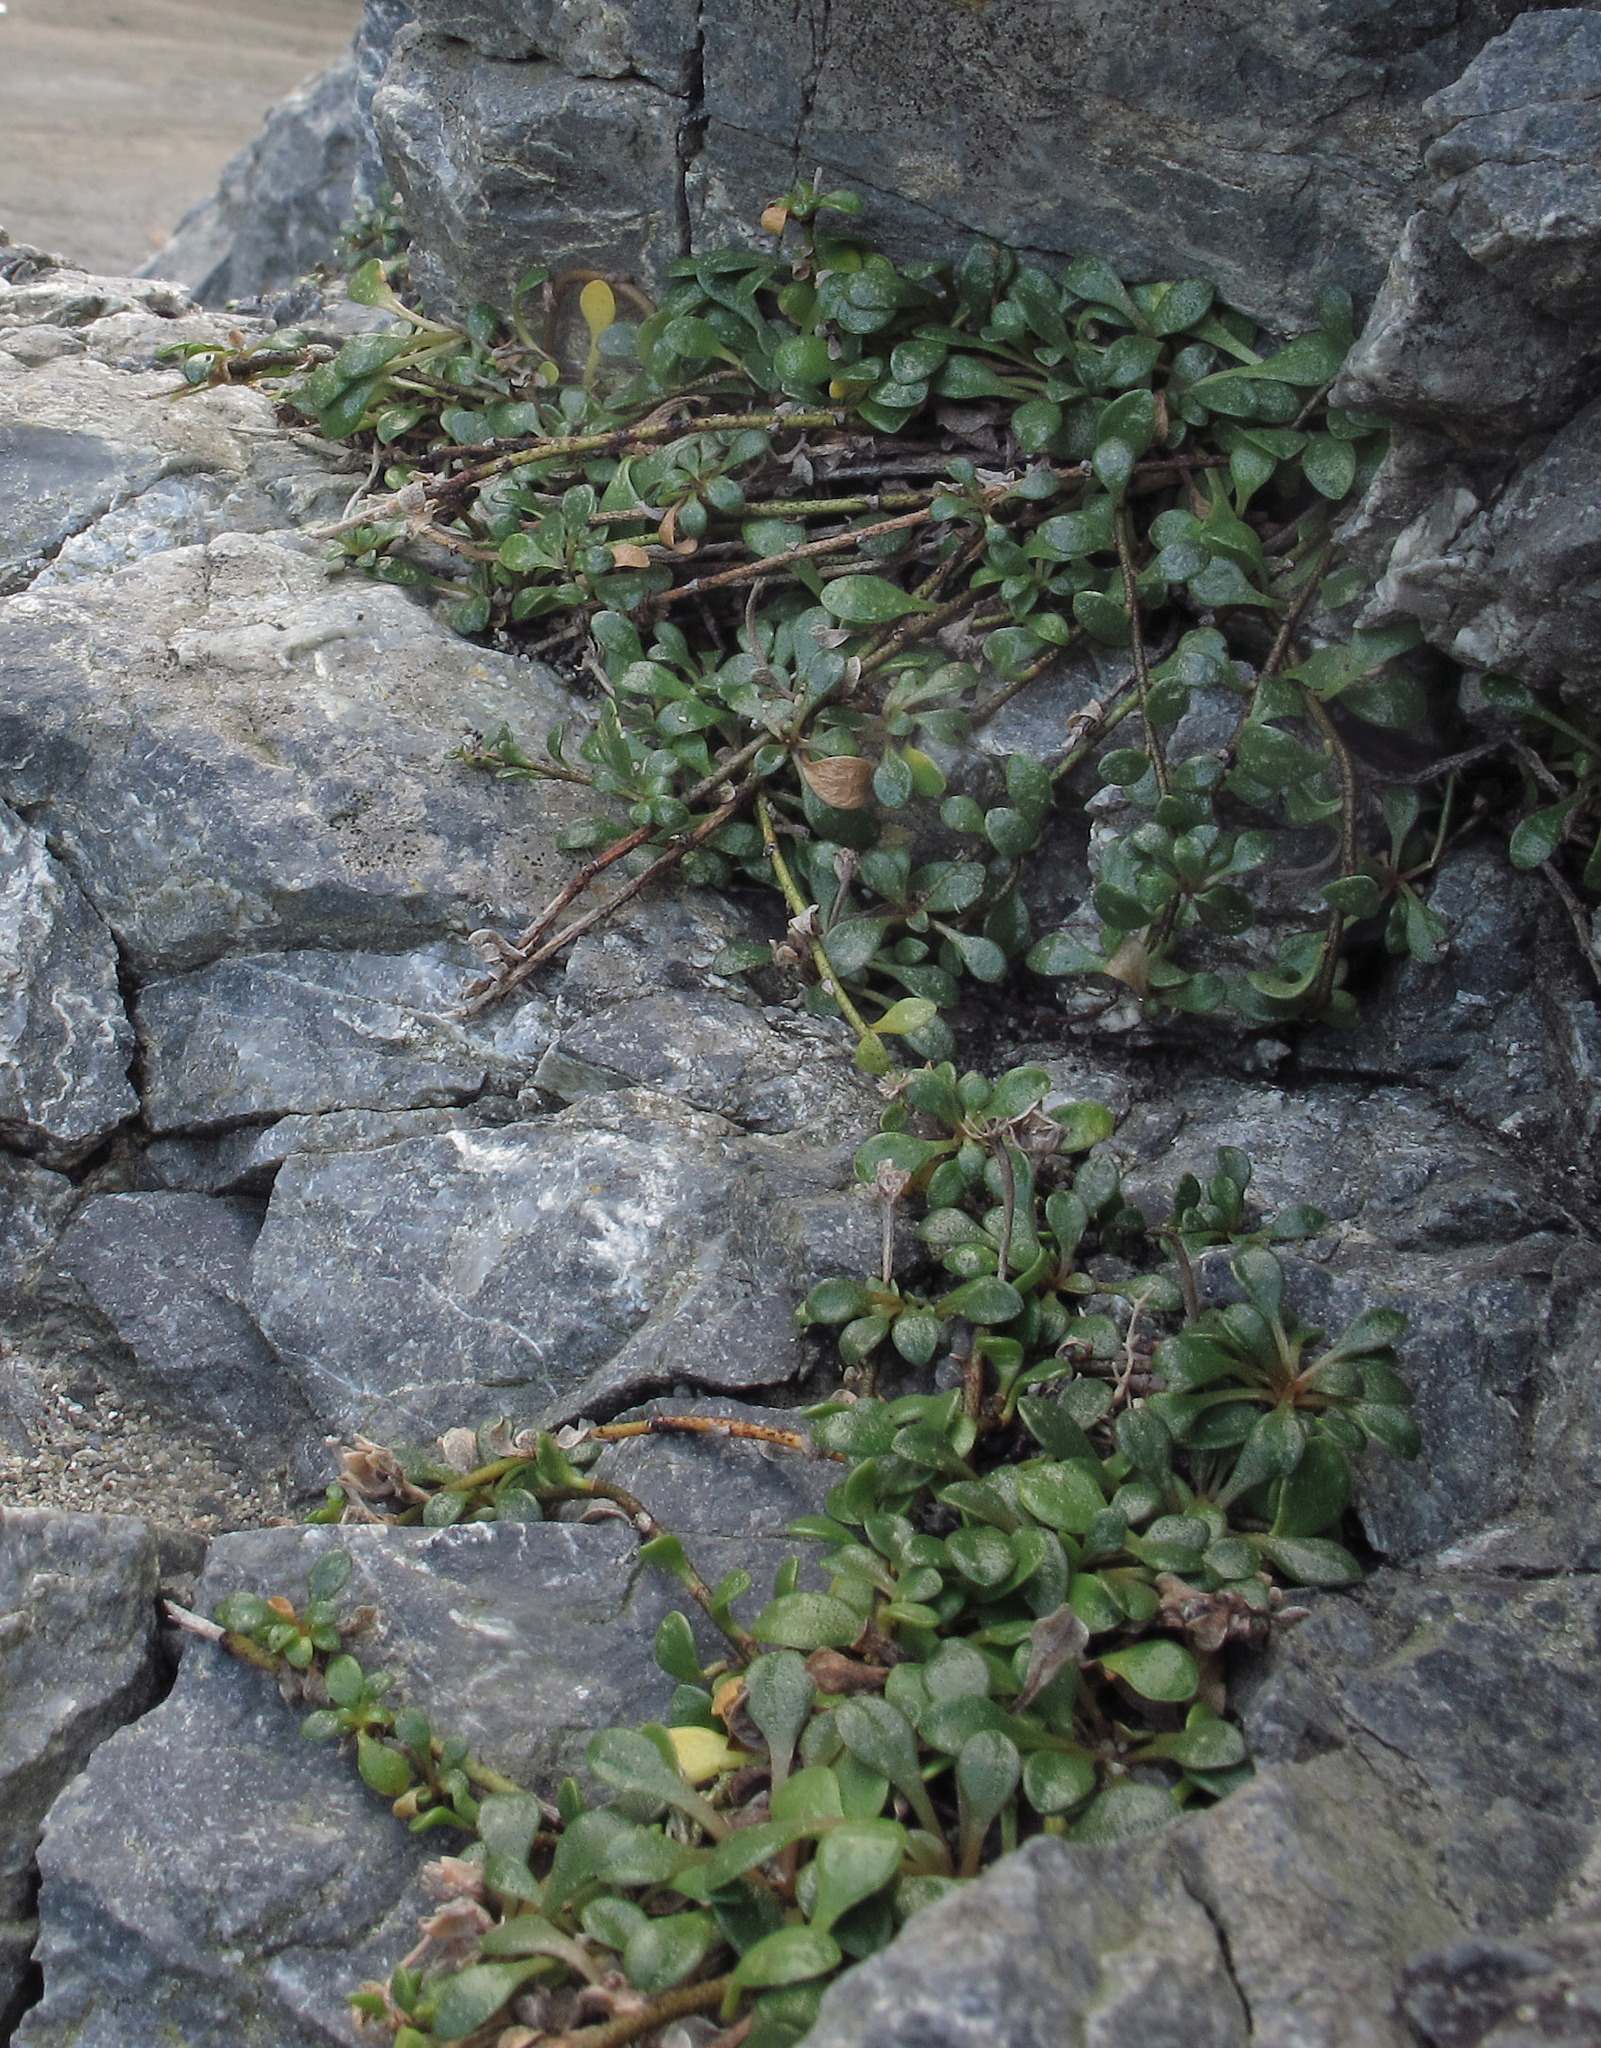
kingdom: Plantae
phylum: Tracheophyta
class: Magnoliopsida
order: Ericales
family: Primulaceae
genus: Samolus
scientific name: Samolus repens
